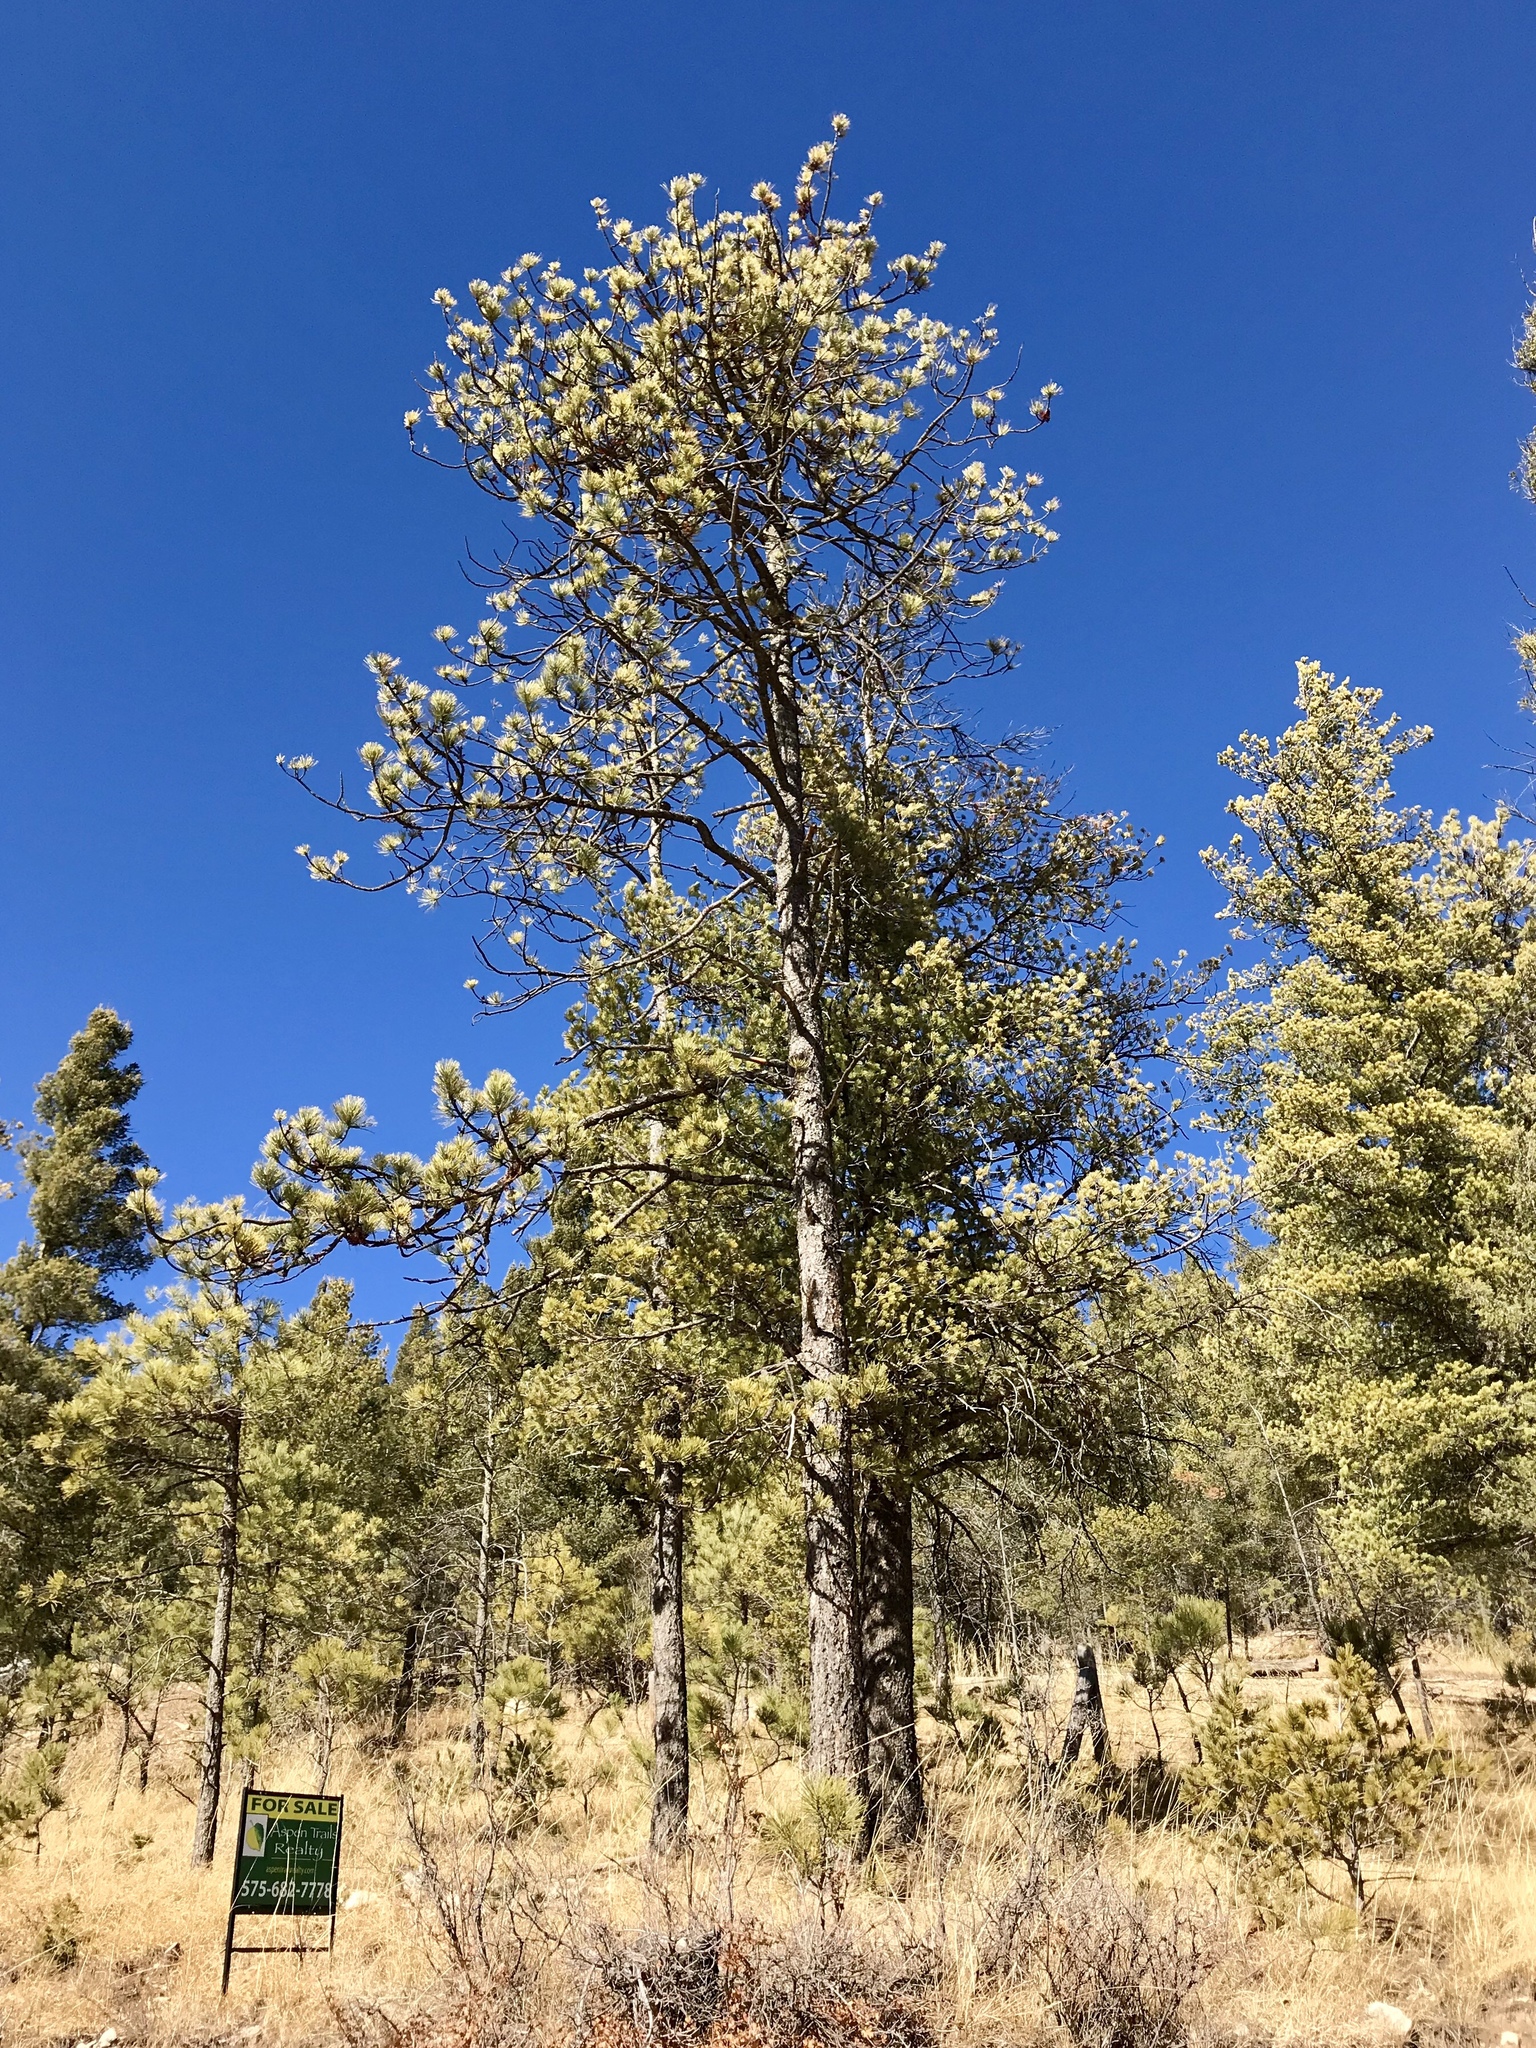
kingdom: Plantae
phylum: Tracheophyta
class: Pinopsida
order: Pinales
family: Pinaceae
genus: Pinus
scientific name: Pinus strobiformis
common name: Southwestern white pine
